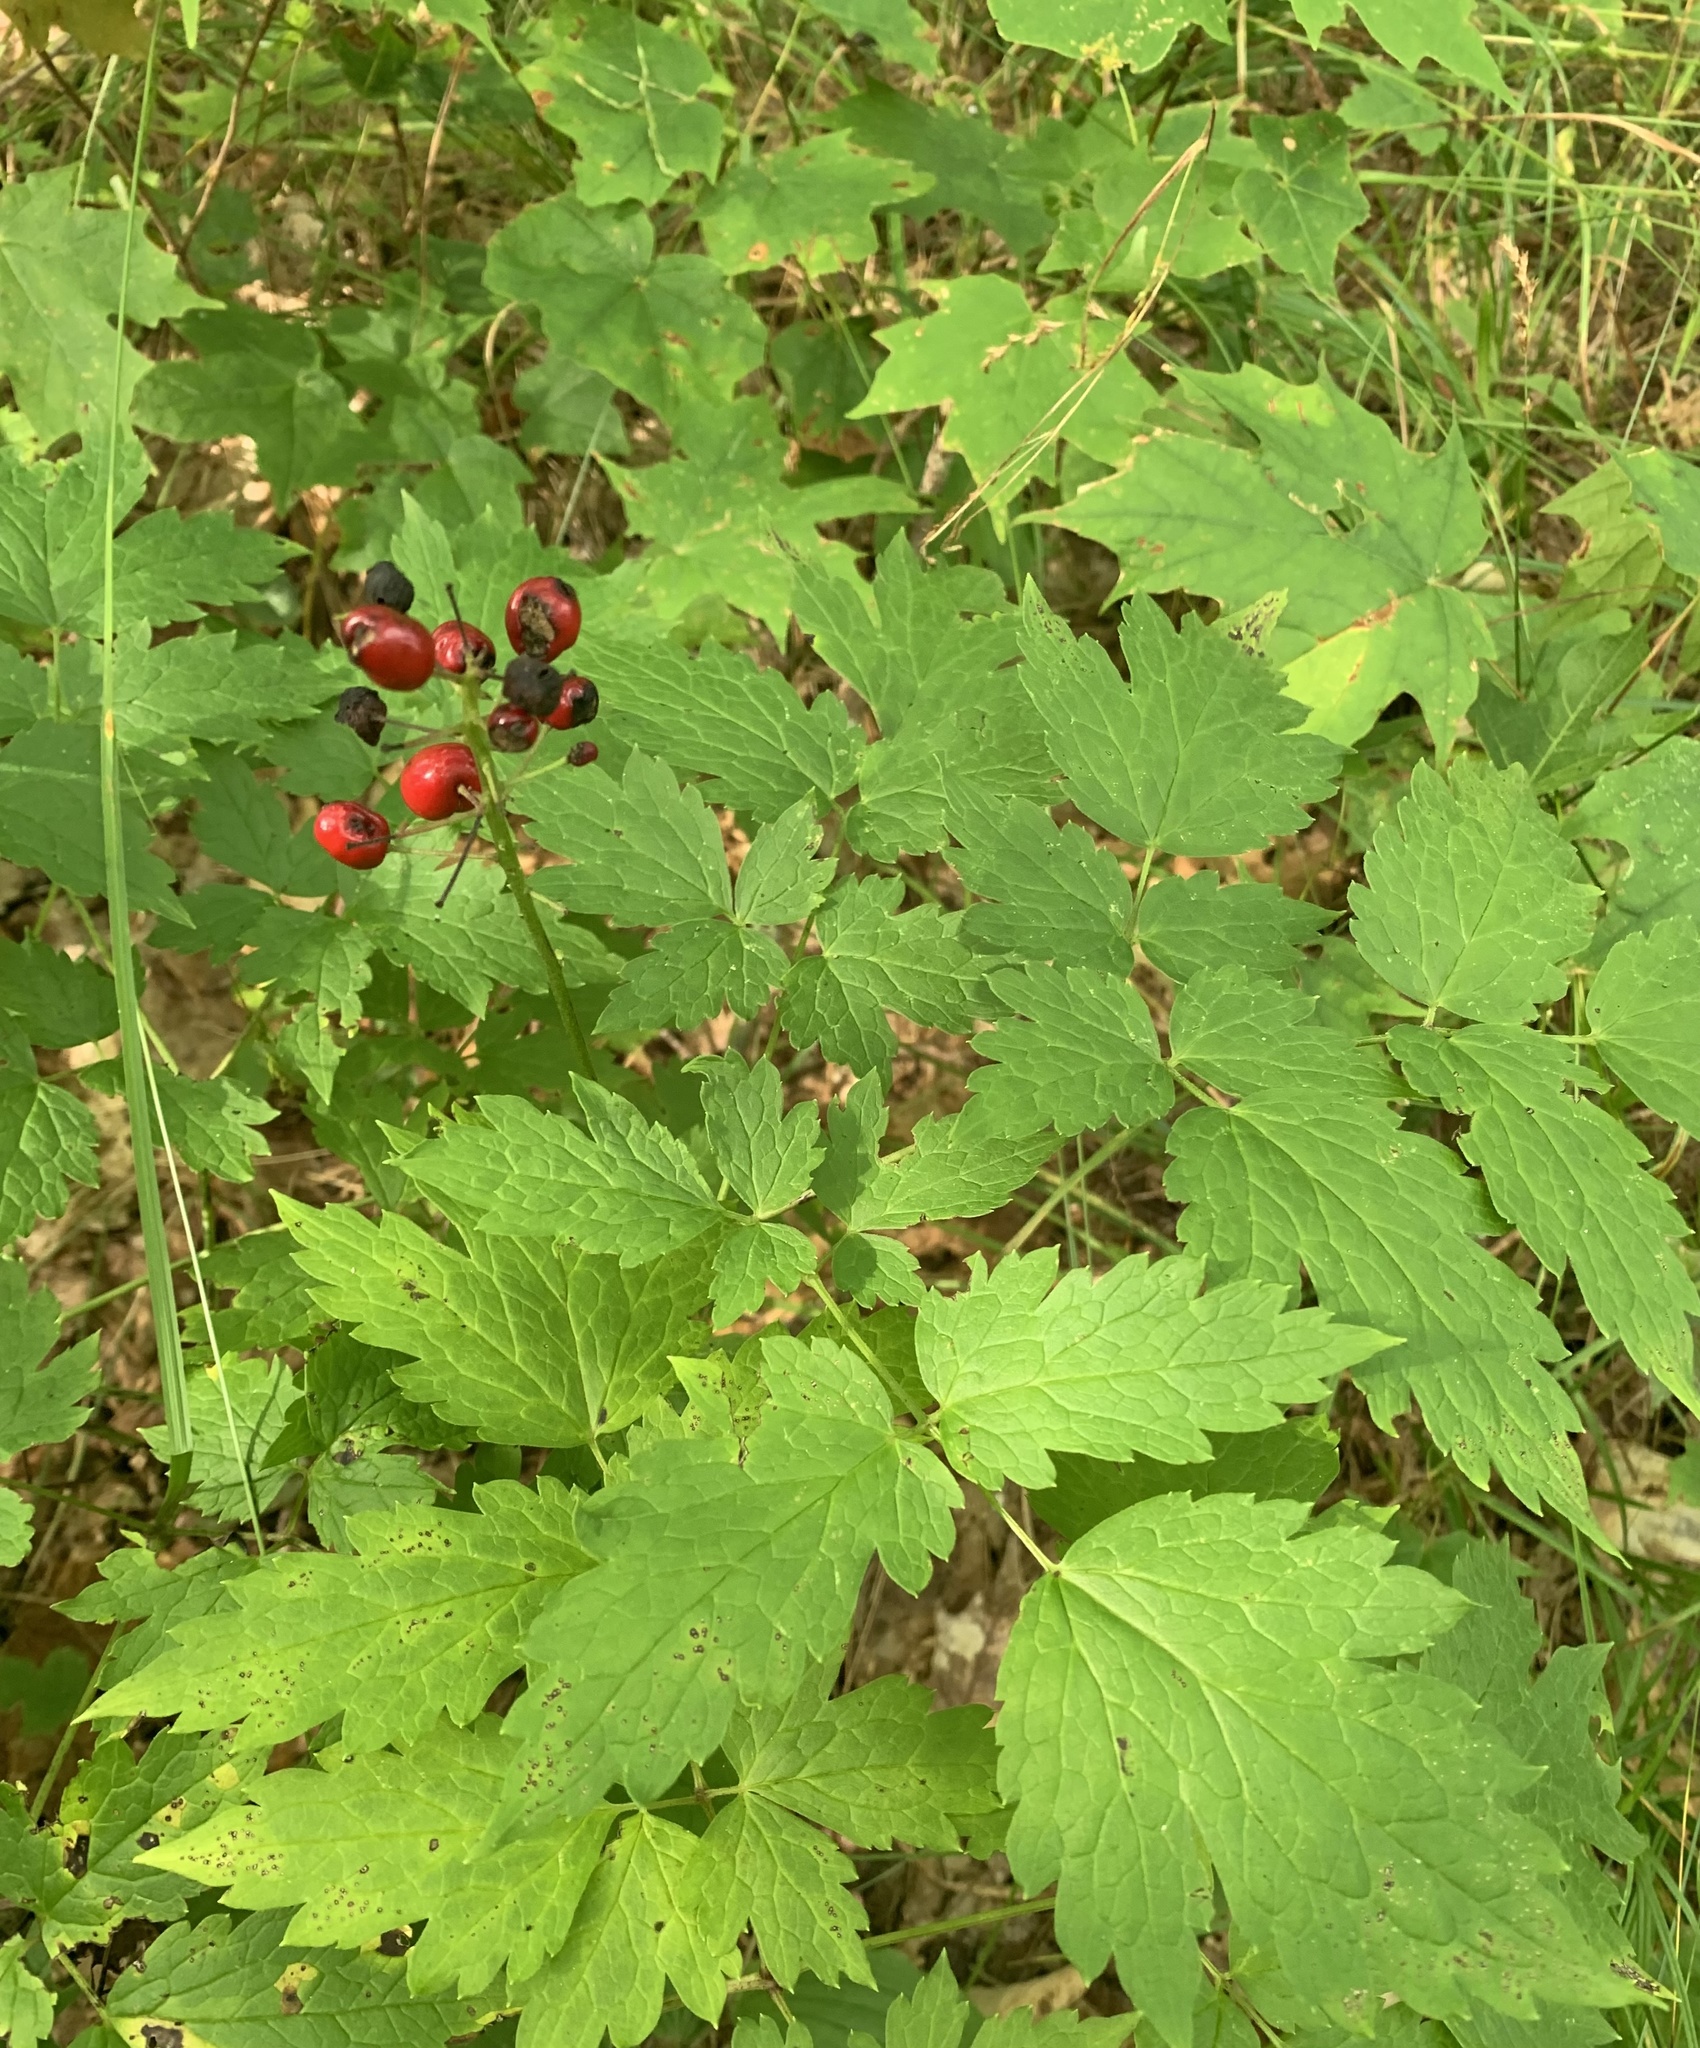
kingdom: Plantae
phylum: Tracheophyta
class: Magnoliopsida
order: Ranunculales
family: Ranunculaceae
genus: Actaea
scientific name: Actaea rubra
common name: Red baneberry
